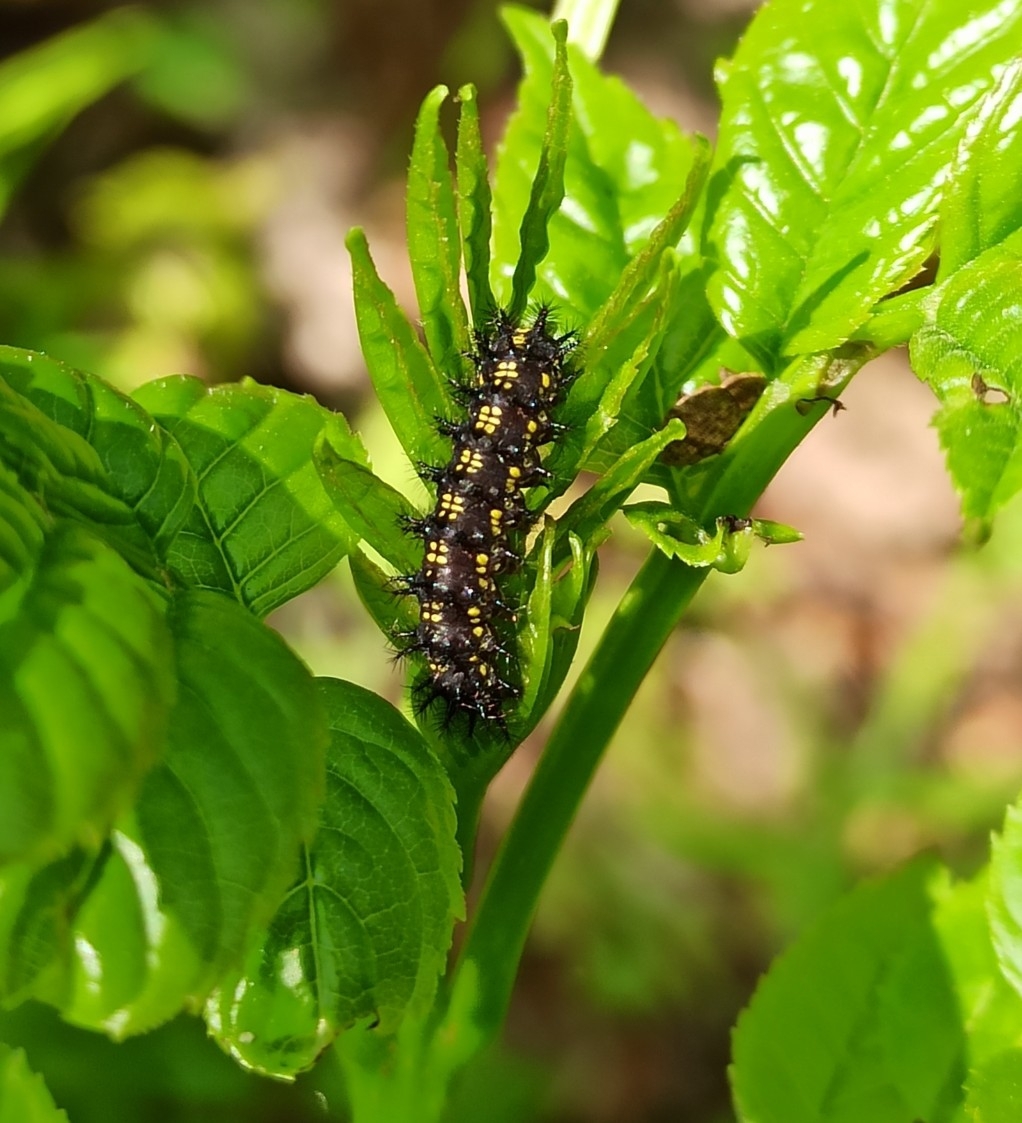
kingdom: Animalia
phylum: Arthropoda
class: Insecta
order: Lepidoptera
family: Nymphalidae
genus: Euphydryas
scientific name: Euphydryas maturna
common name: Scarce fritillary
